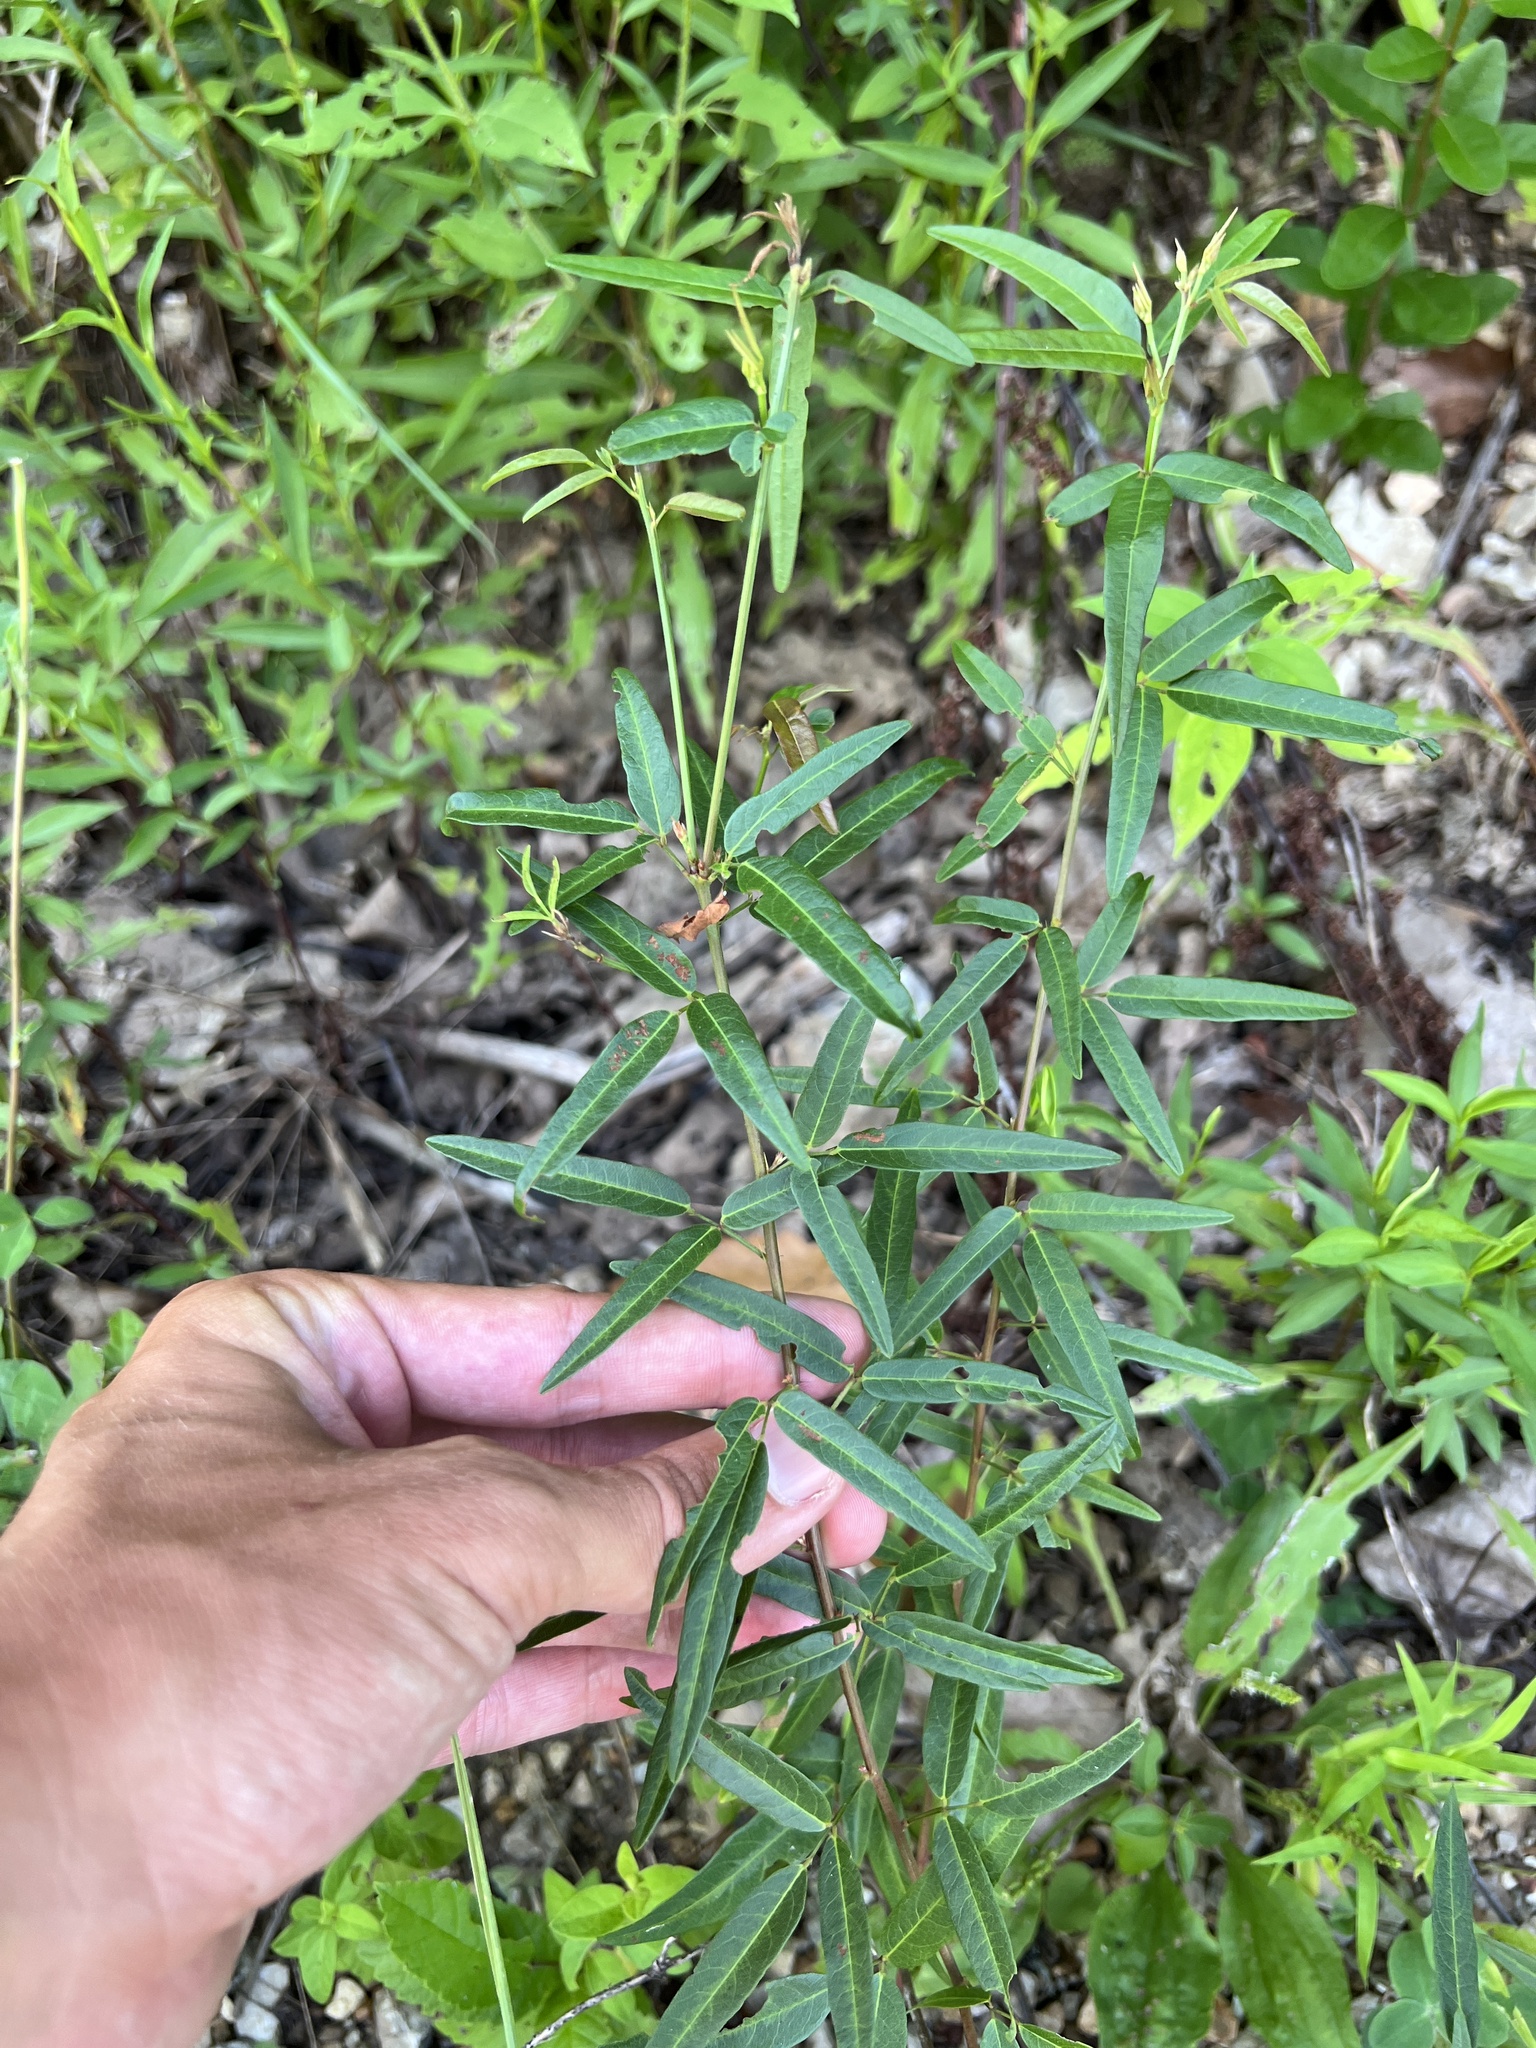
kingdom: Plantae
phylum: Tracheophyta
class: Magnoliopsida
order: Fabales
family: Fabaceae
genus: Desmodium
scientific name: Desmodium paniculatum
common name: Panicled tick-clover
